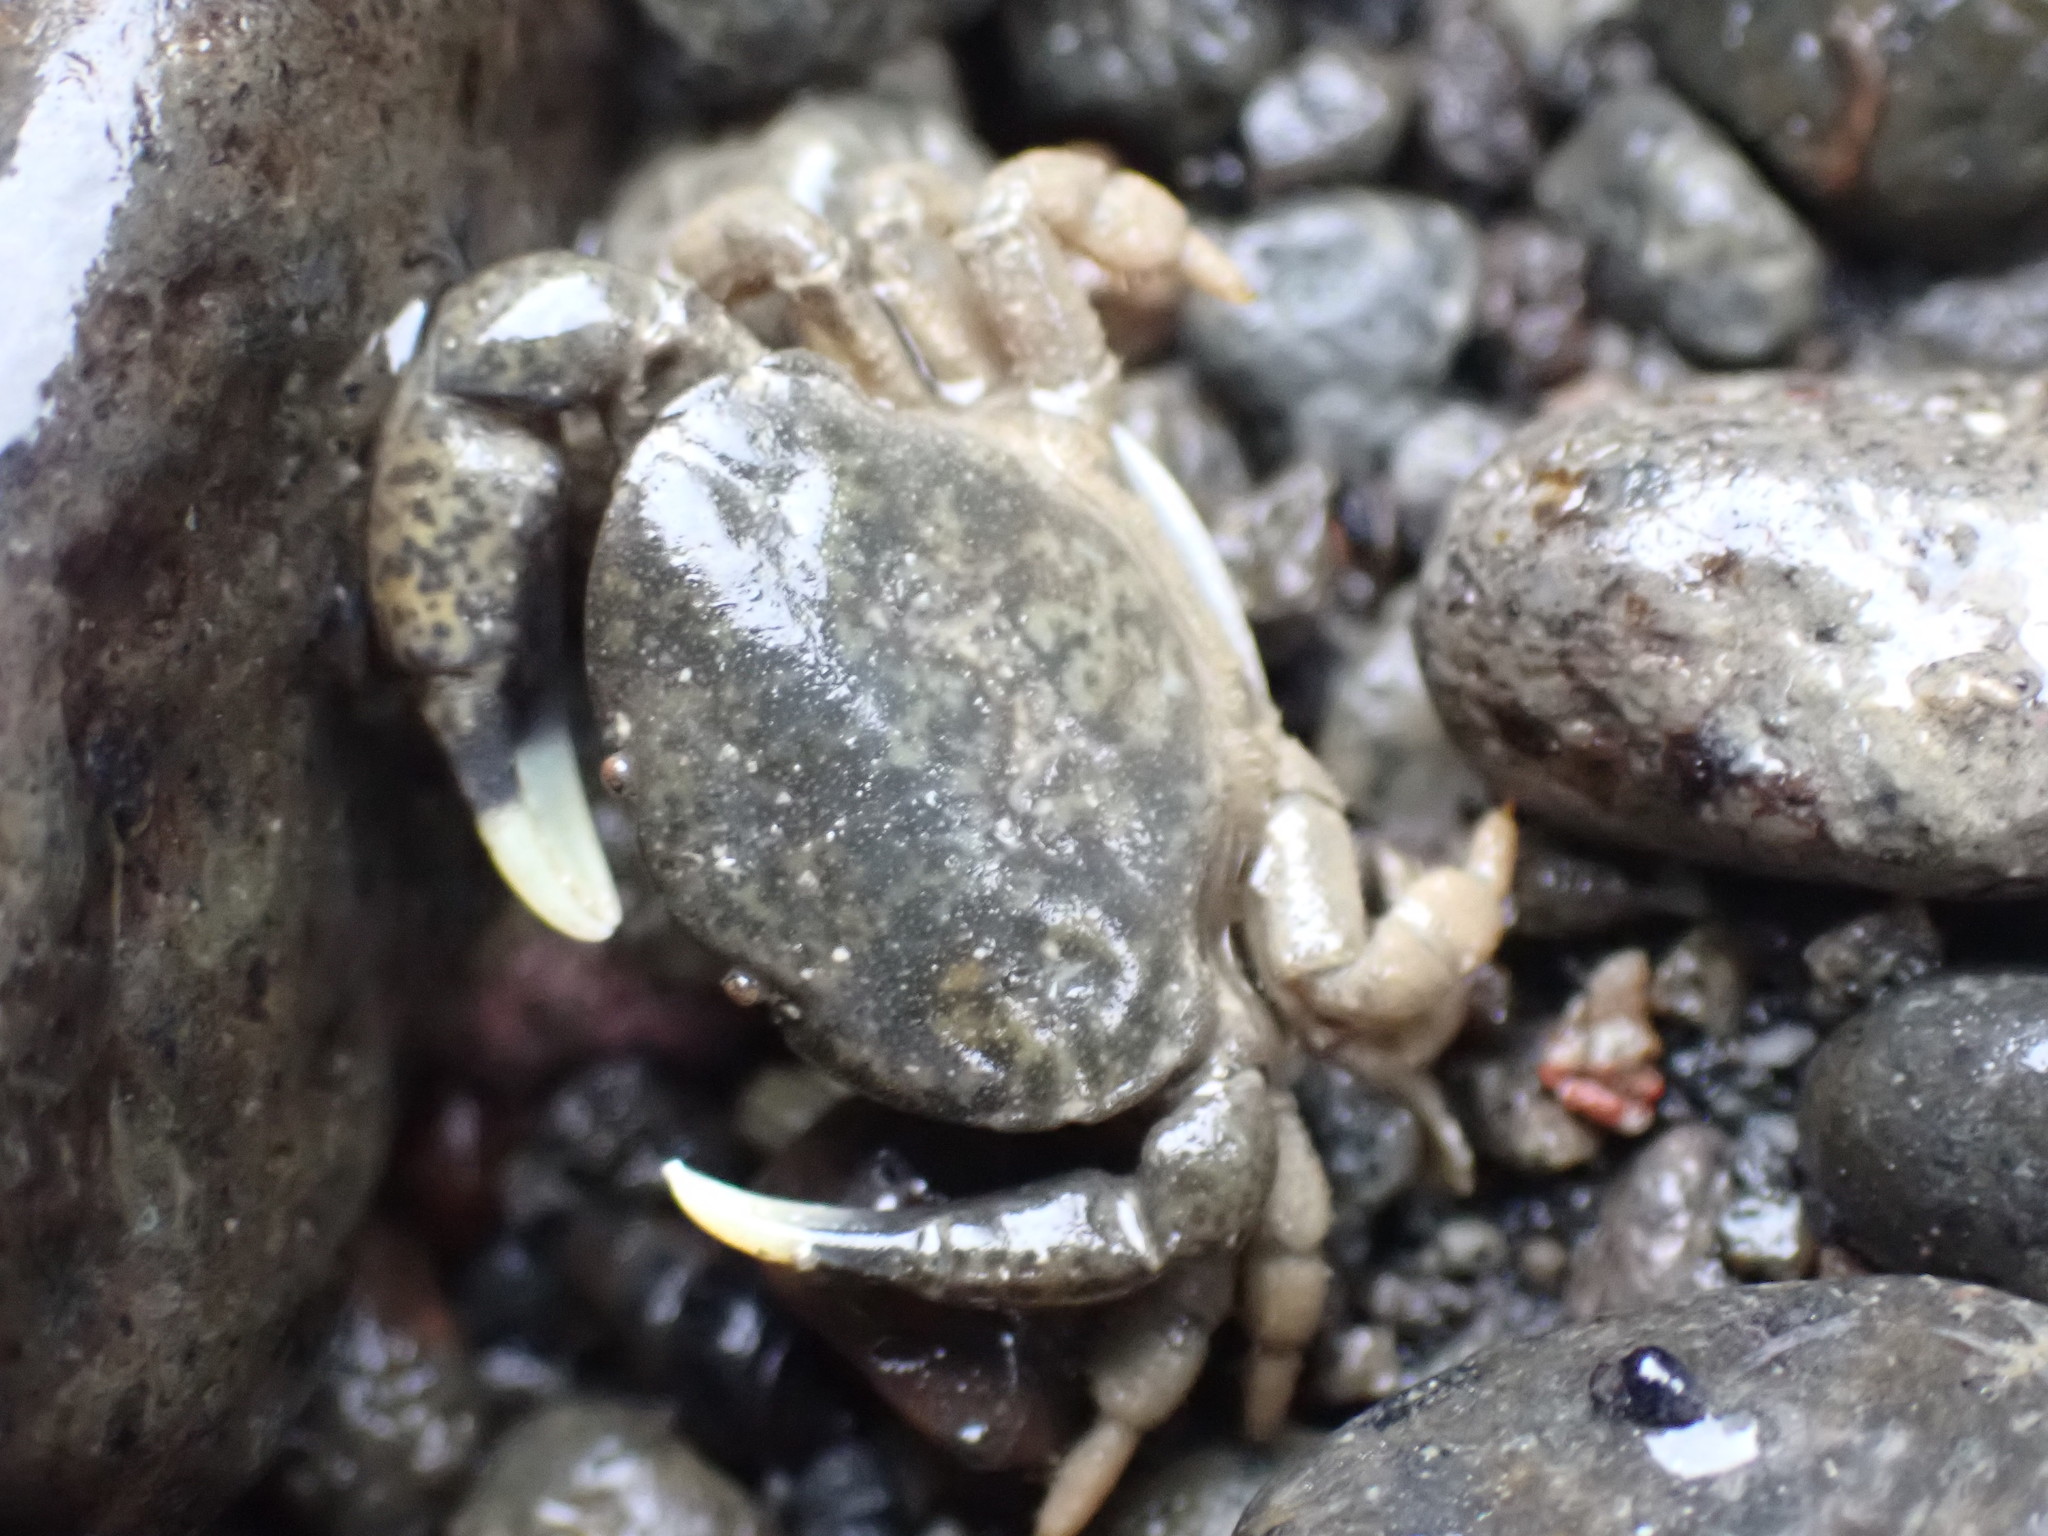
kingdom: Animalia
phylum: Arthropoda
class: Malacostraca
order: Decapoda
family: Heteroziidae
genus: Heterozius
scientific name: Heterozius rotundifrons
